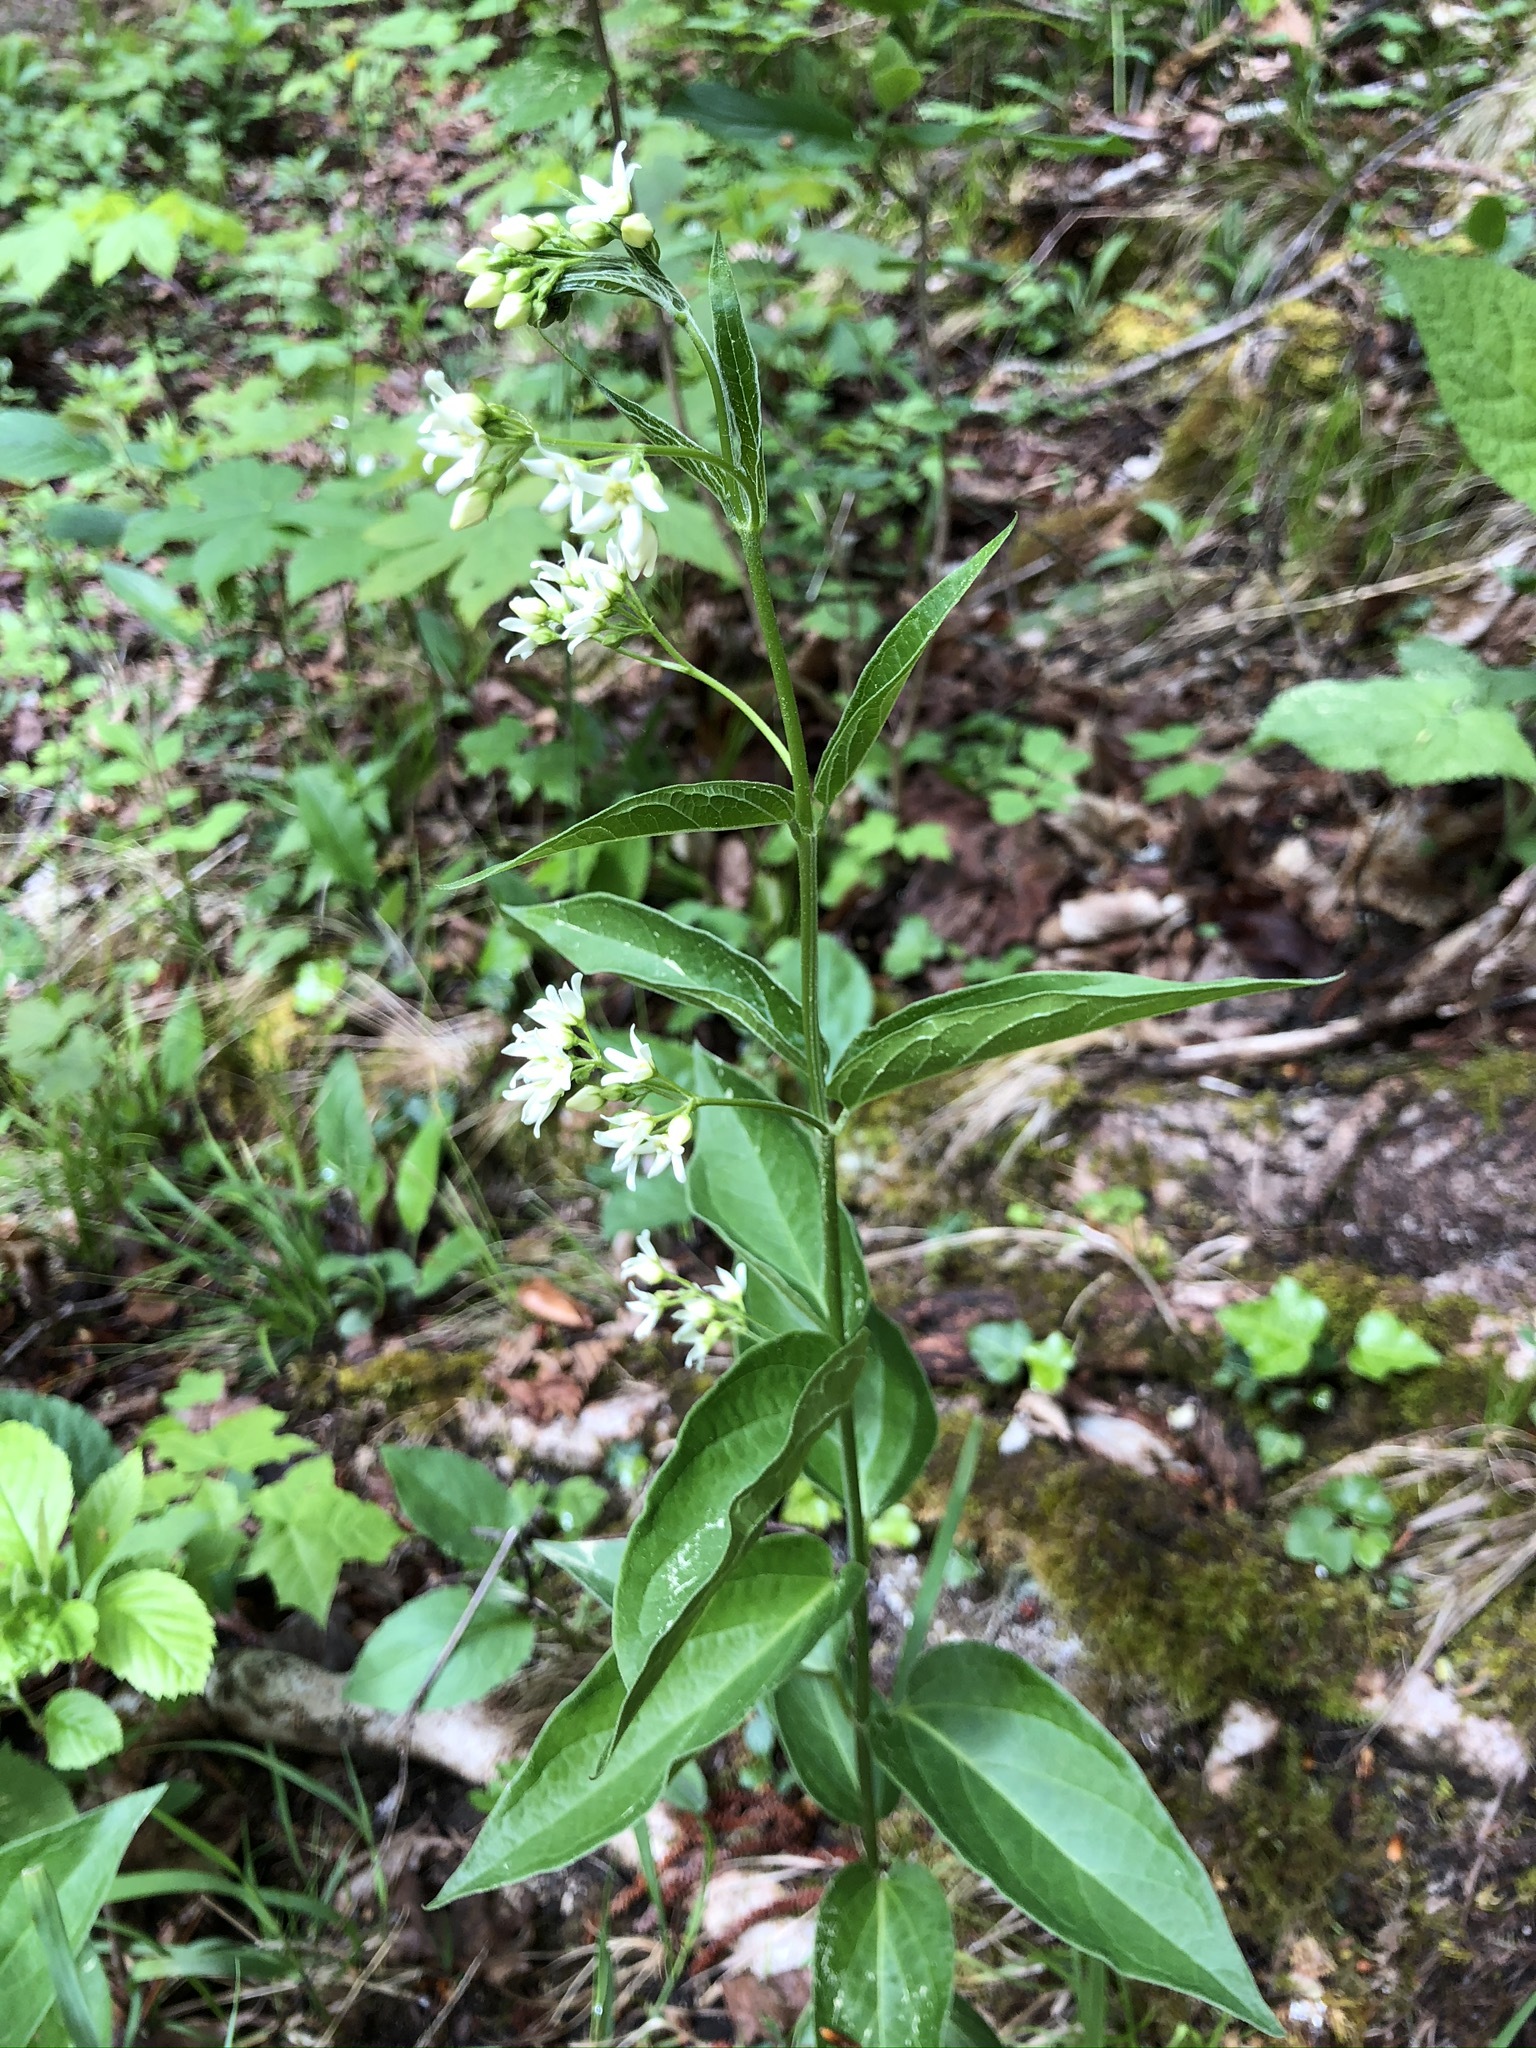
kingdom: Plantae
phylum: Tracheophyta
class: Magnoliopsida
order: Gentianales
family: Apocynaceae
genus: Vincetoxicum
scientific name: Vincetoxicum hirundinaria
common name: White swallowwort
